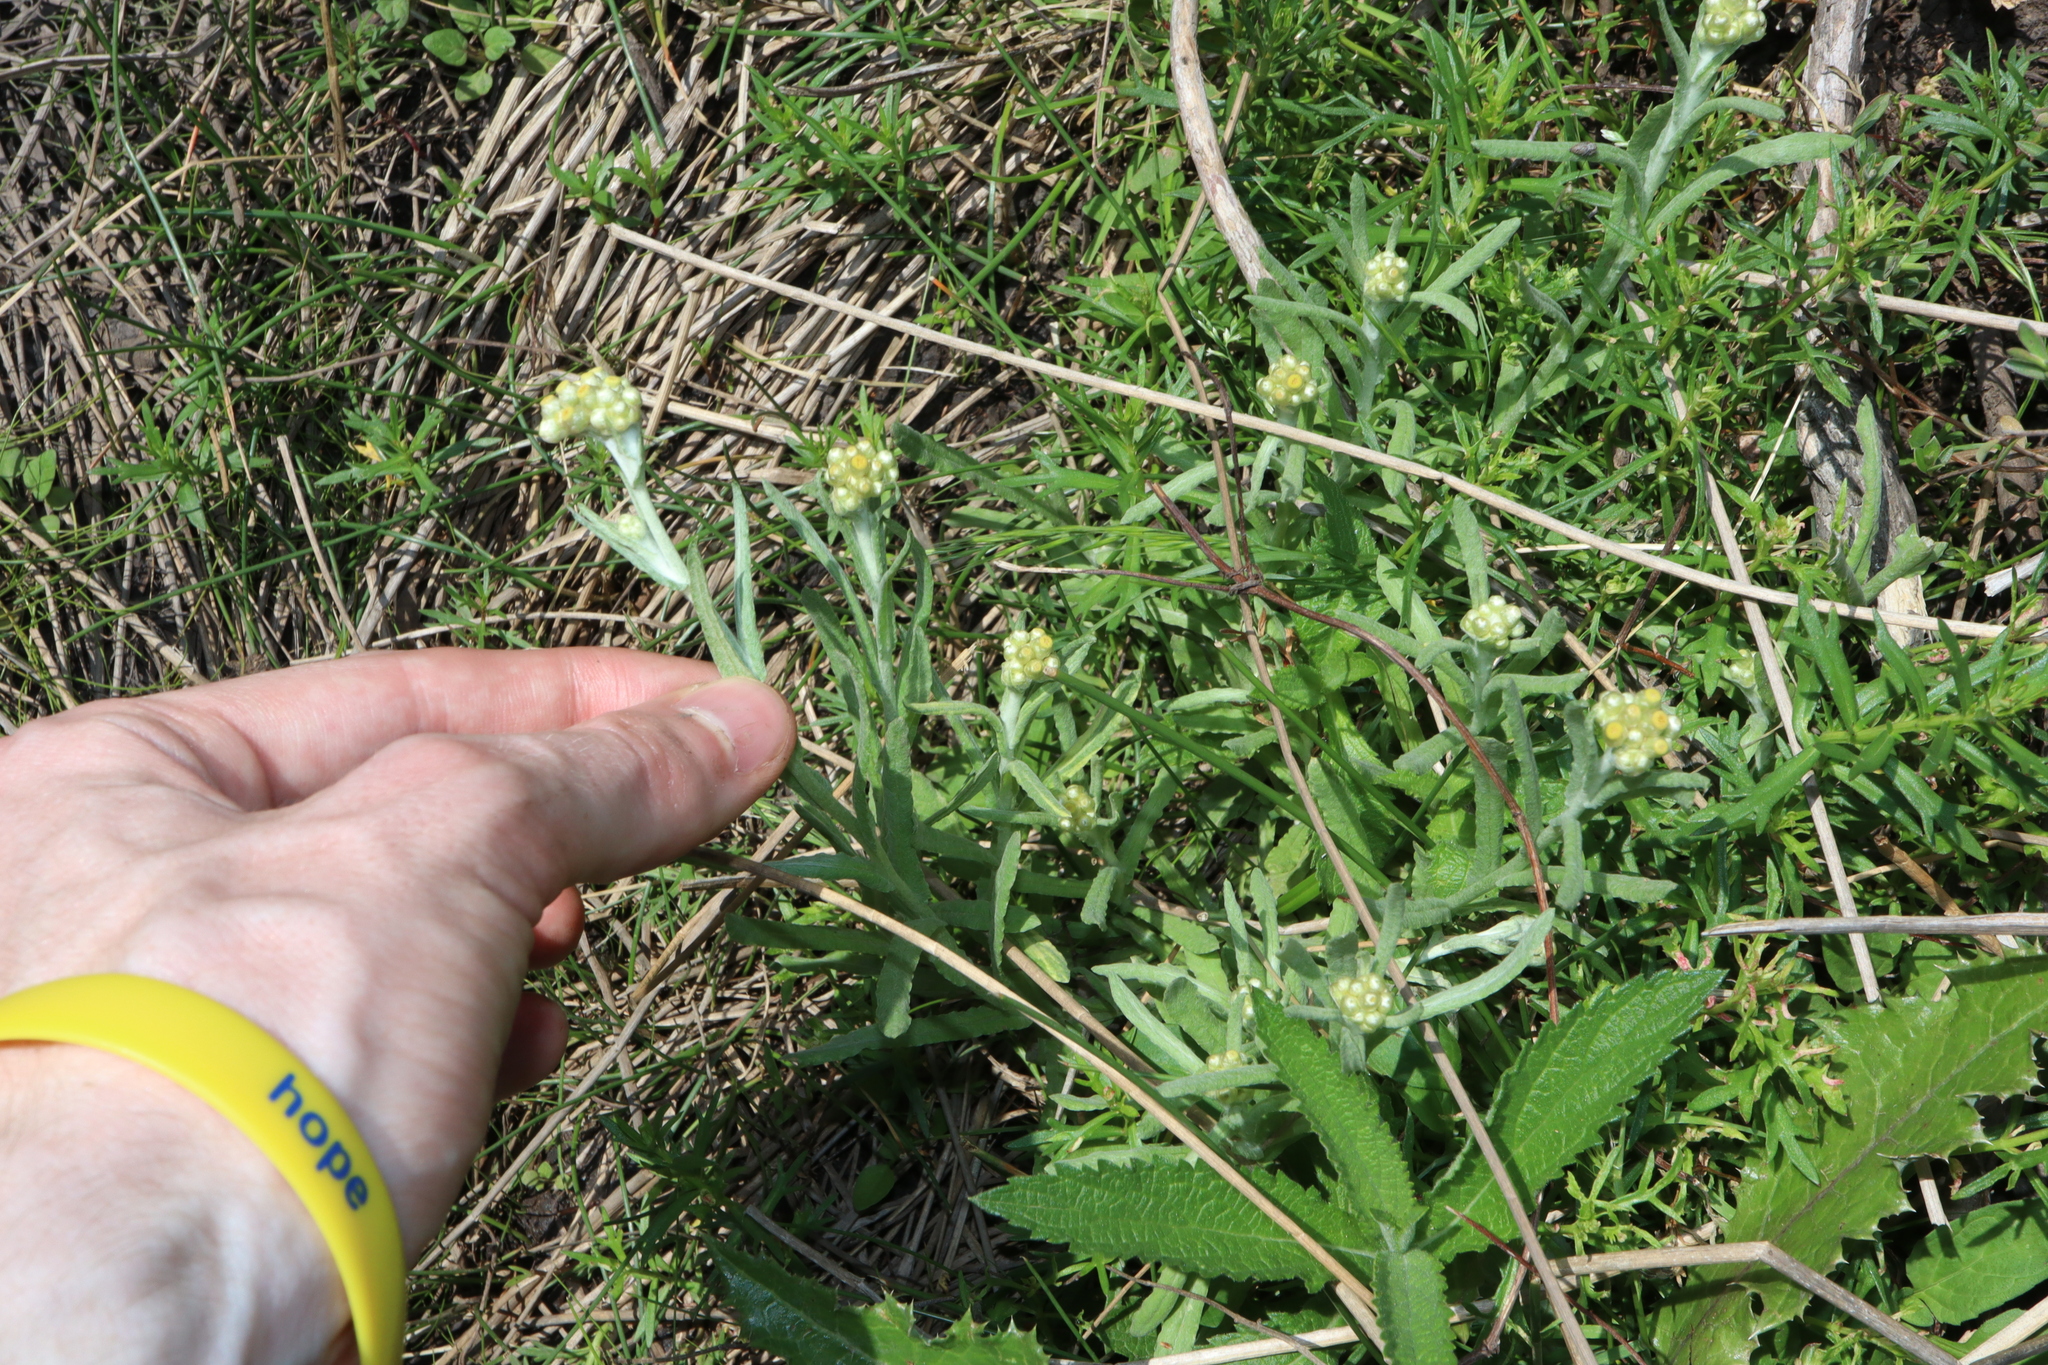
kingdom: Plantae
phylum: Tracheophyta
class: Magnoliopsida
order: Asterales
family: Asteraceae
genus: Helichrysum
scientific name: Helichrysum luteoalbum
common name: Daisy
